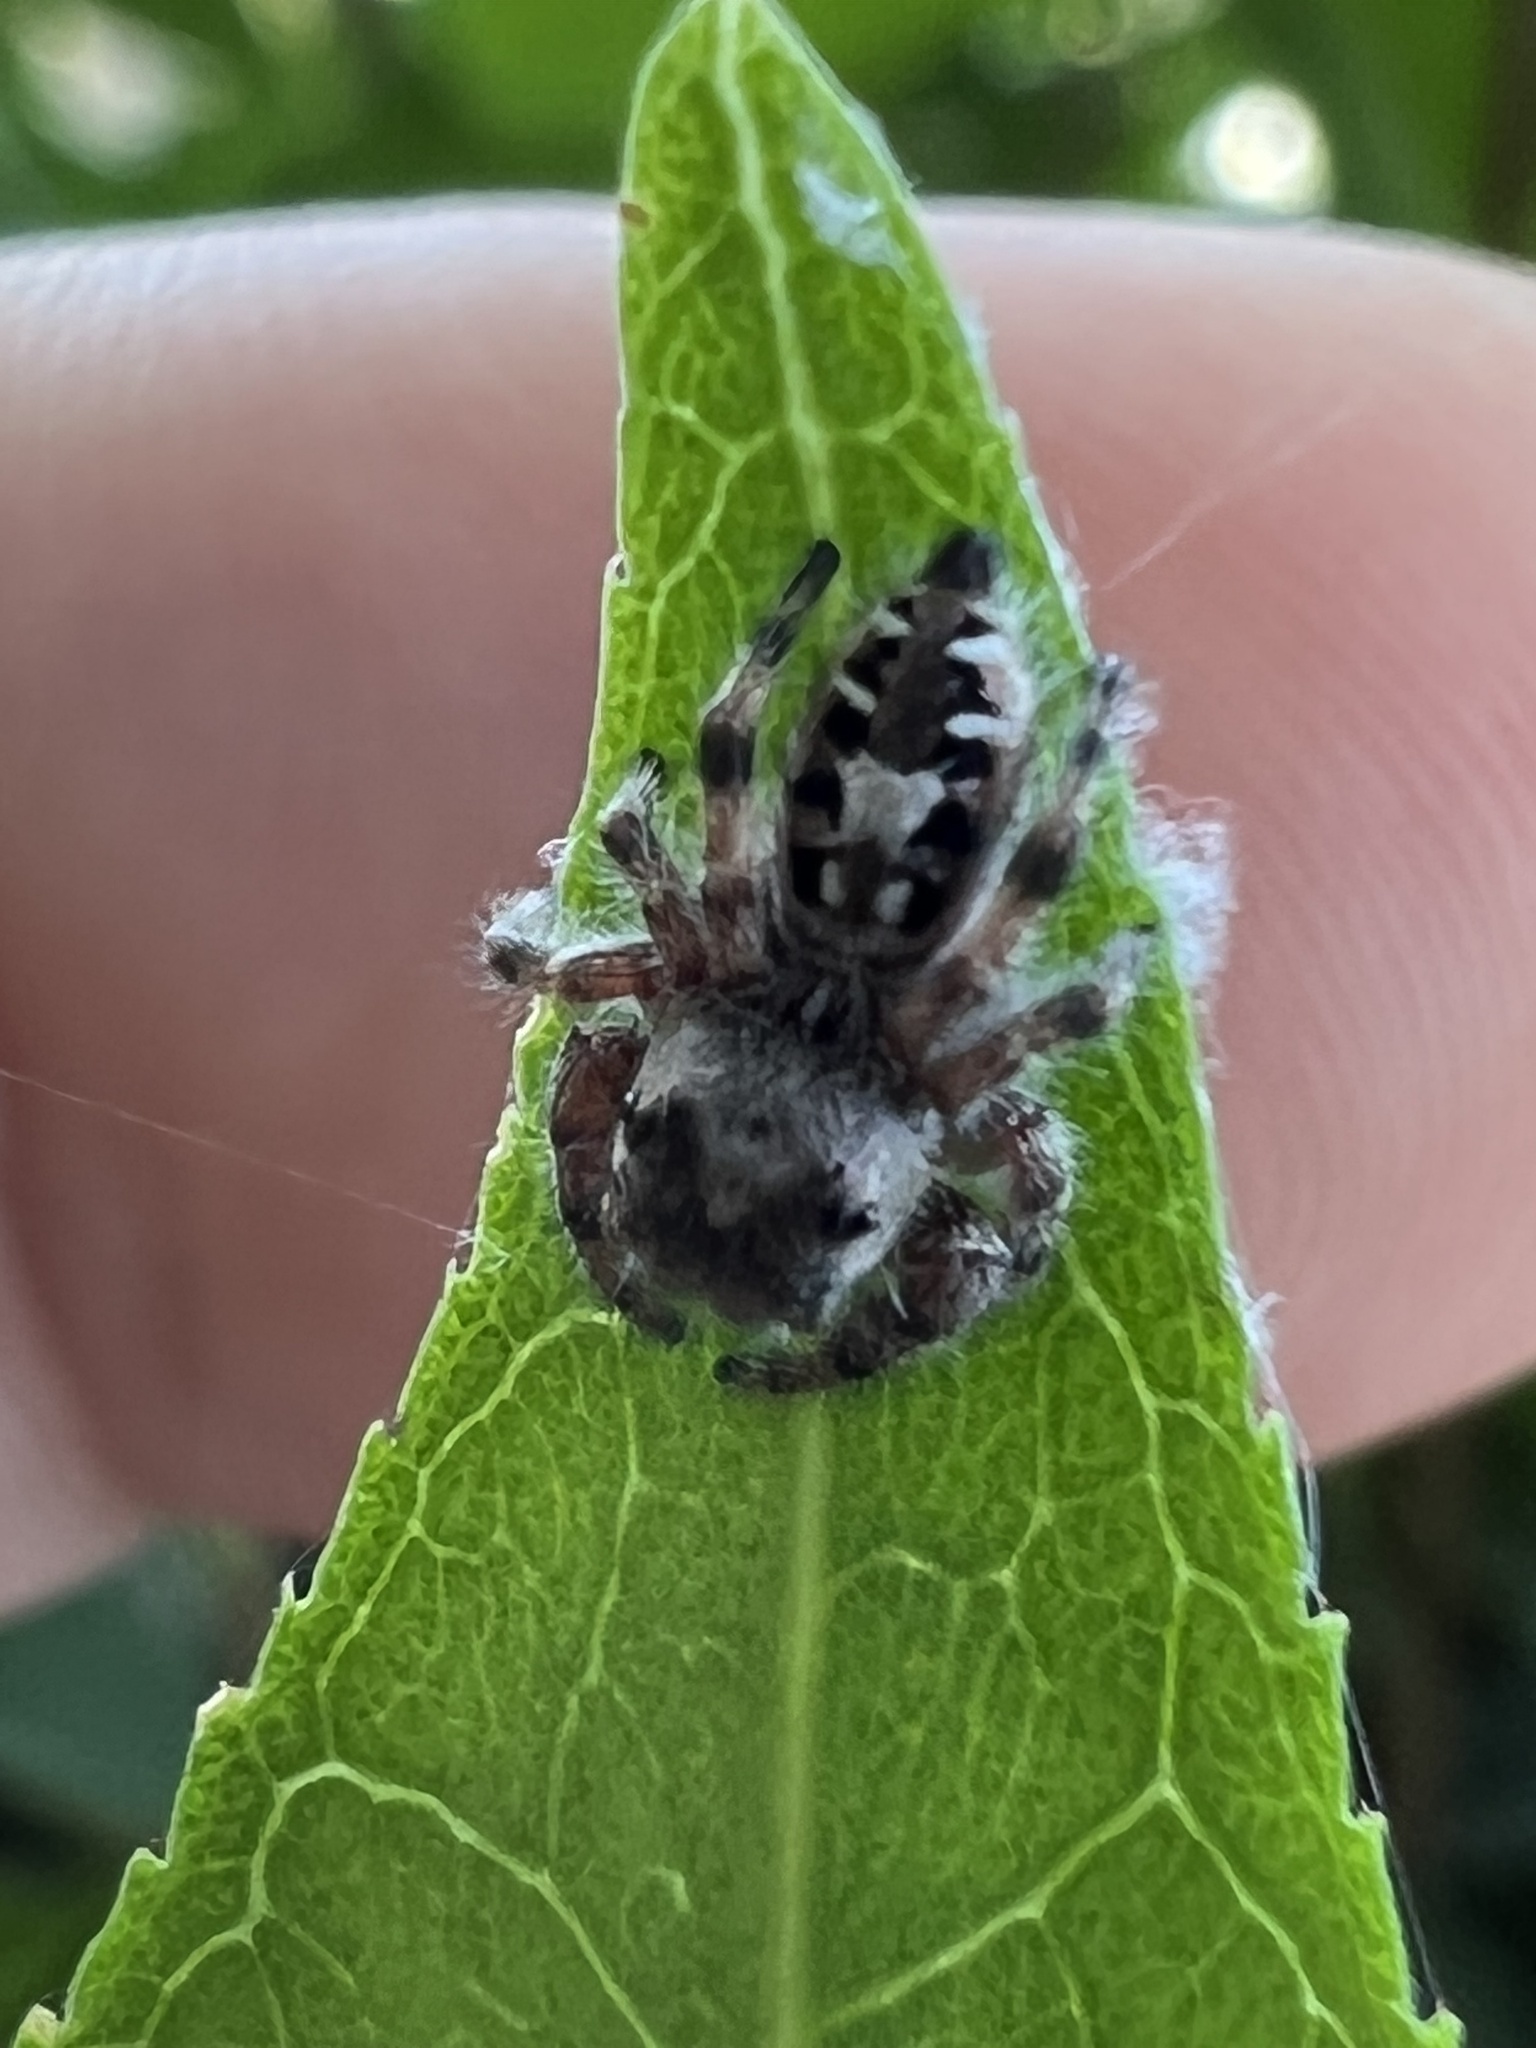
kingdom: Animalia
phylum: Arthropoda
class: Arachnida
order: Araneae
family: Salticidae
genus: Phidippus
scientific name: Phidippus putnami
